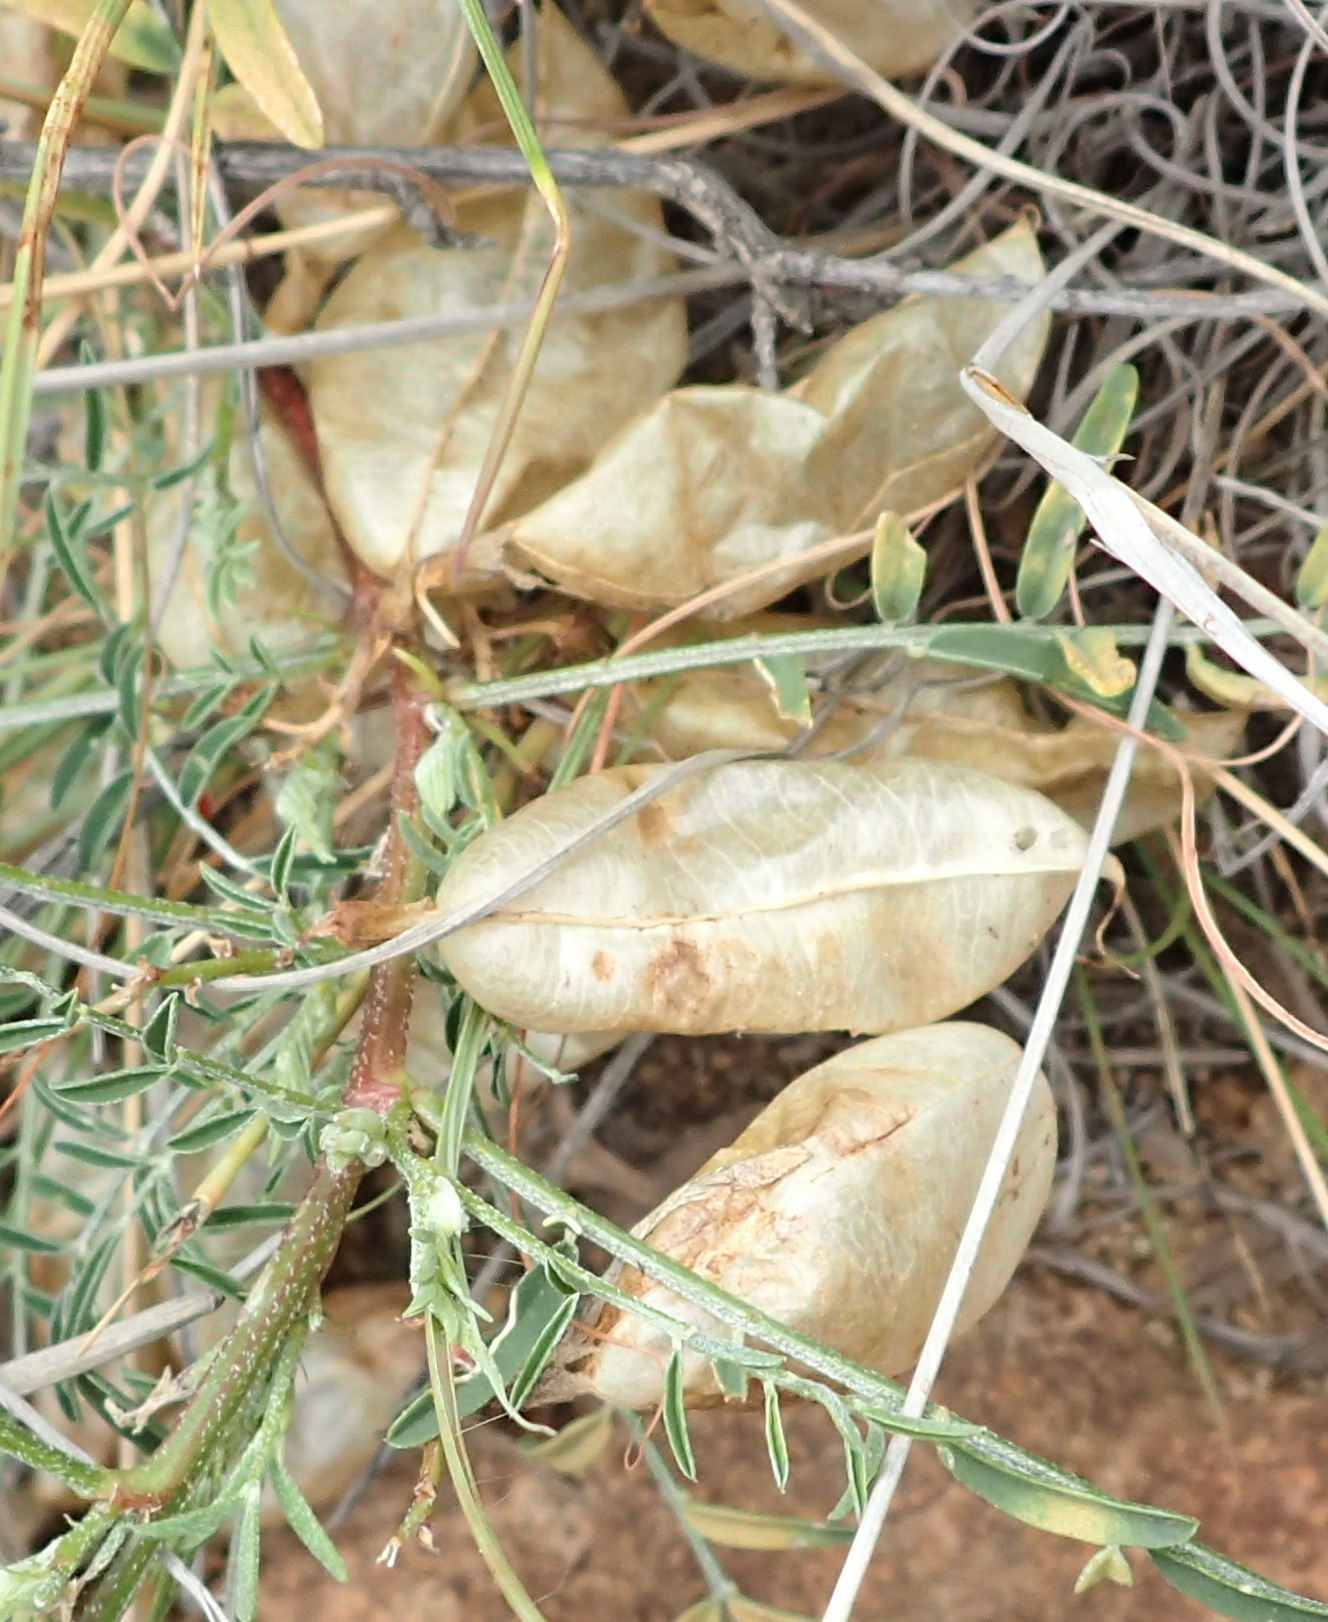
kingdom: Plantae
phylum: Tracheophyta
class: Magnoliopsida
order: Fabales
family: Fabaceae
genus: Lessertia
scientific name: Lessertia frutescens
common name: Balloon-pea
